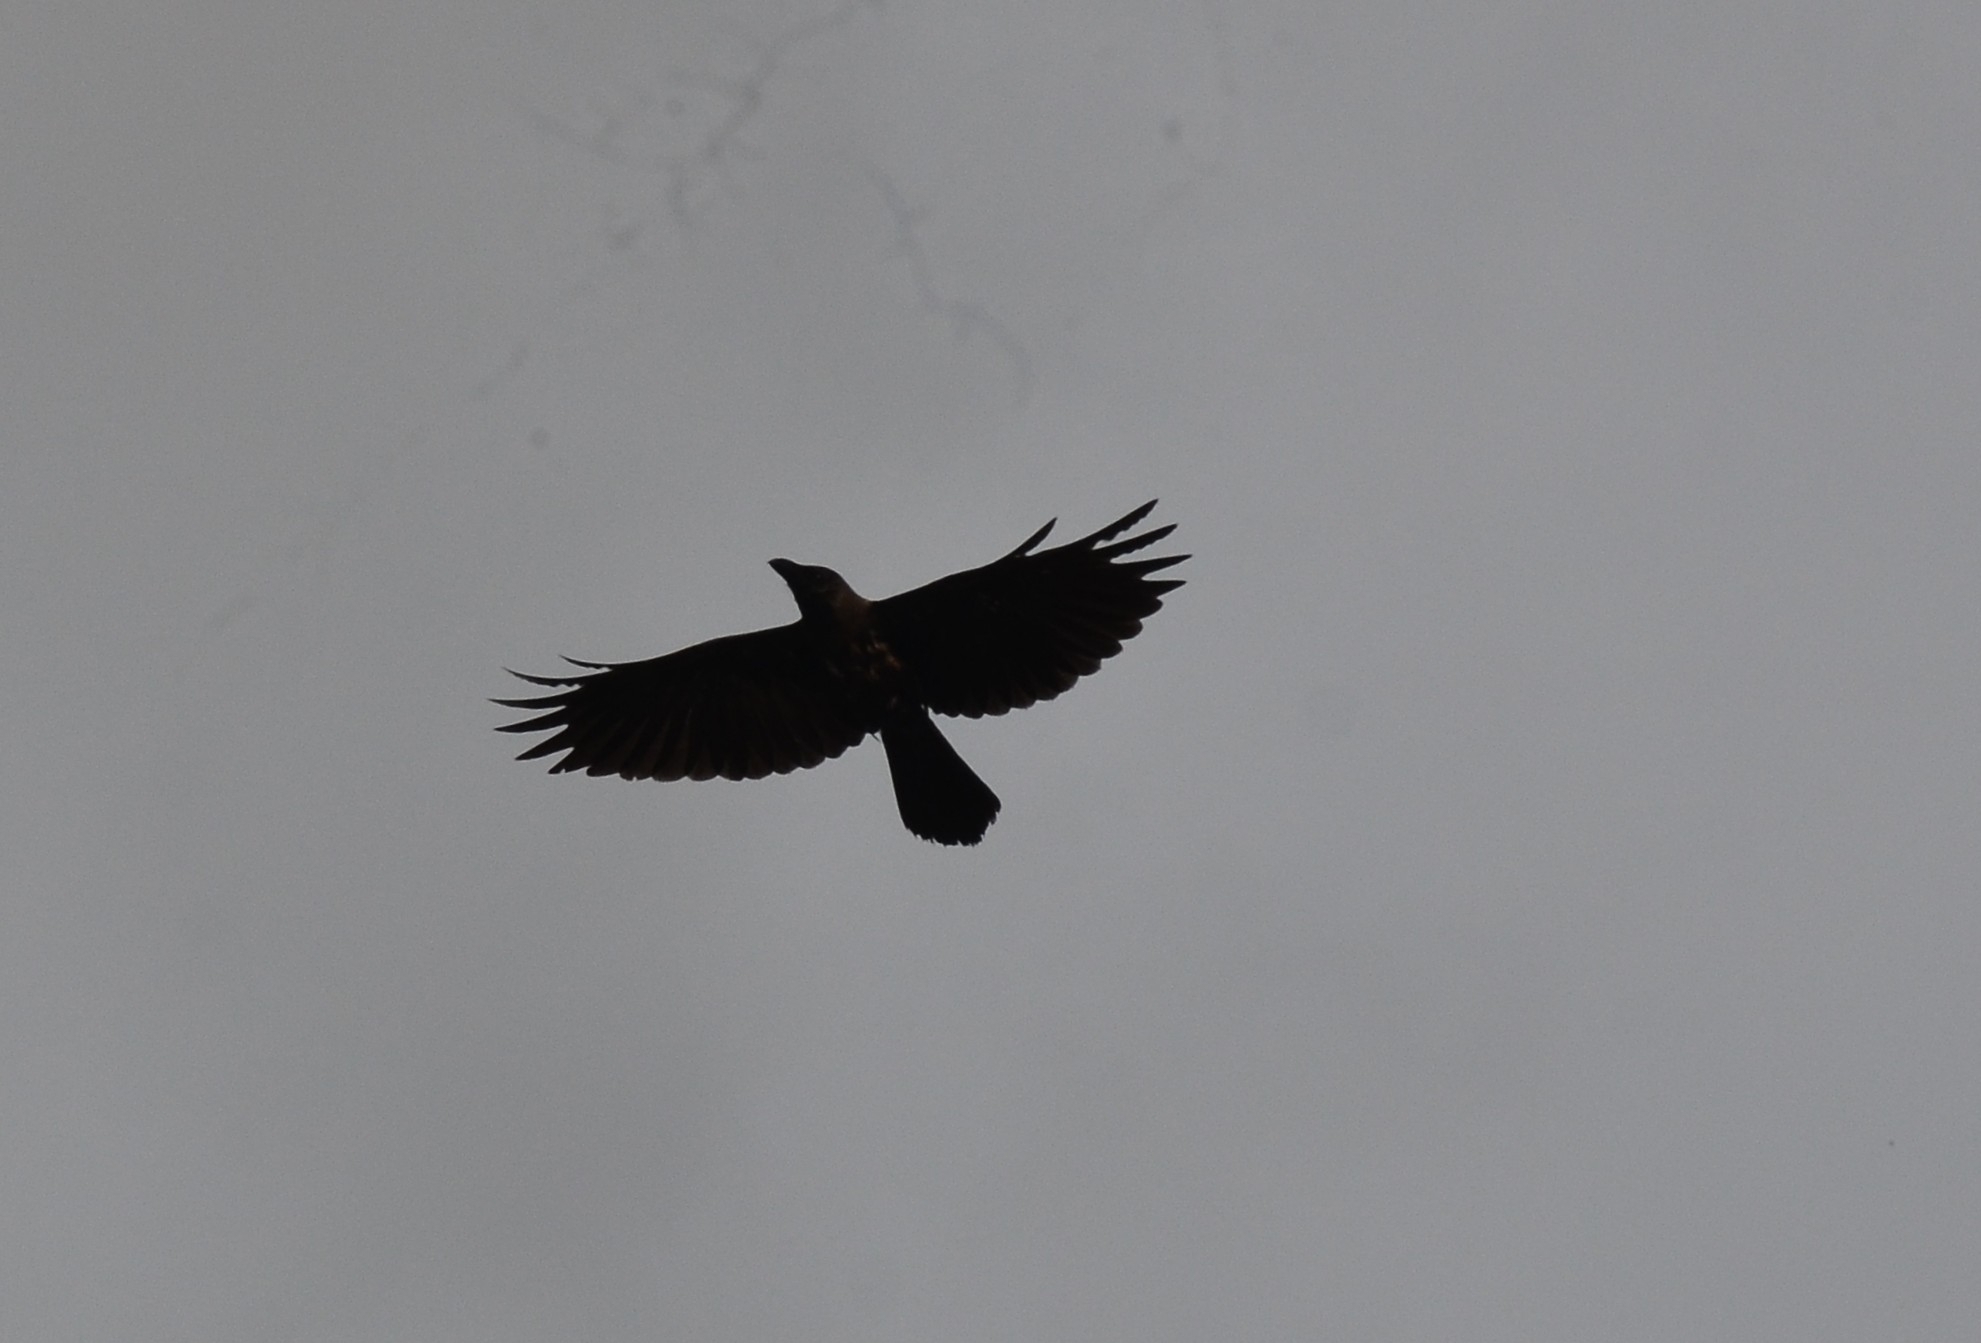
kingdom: Animalia
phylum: Chordata
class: Aves
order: Passeriformes
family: Corvidae
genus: Corvus
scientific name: Corvus splendens
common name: House crow
